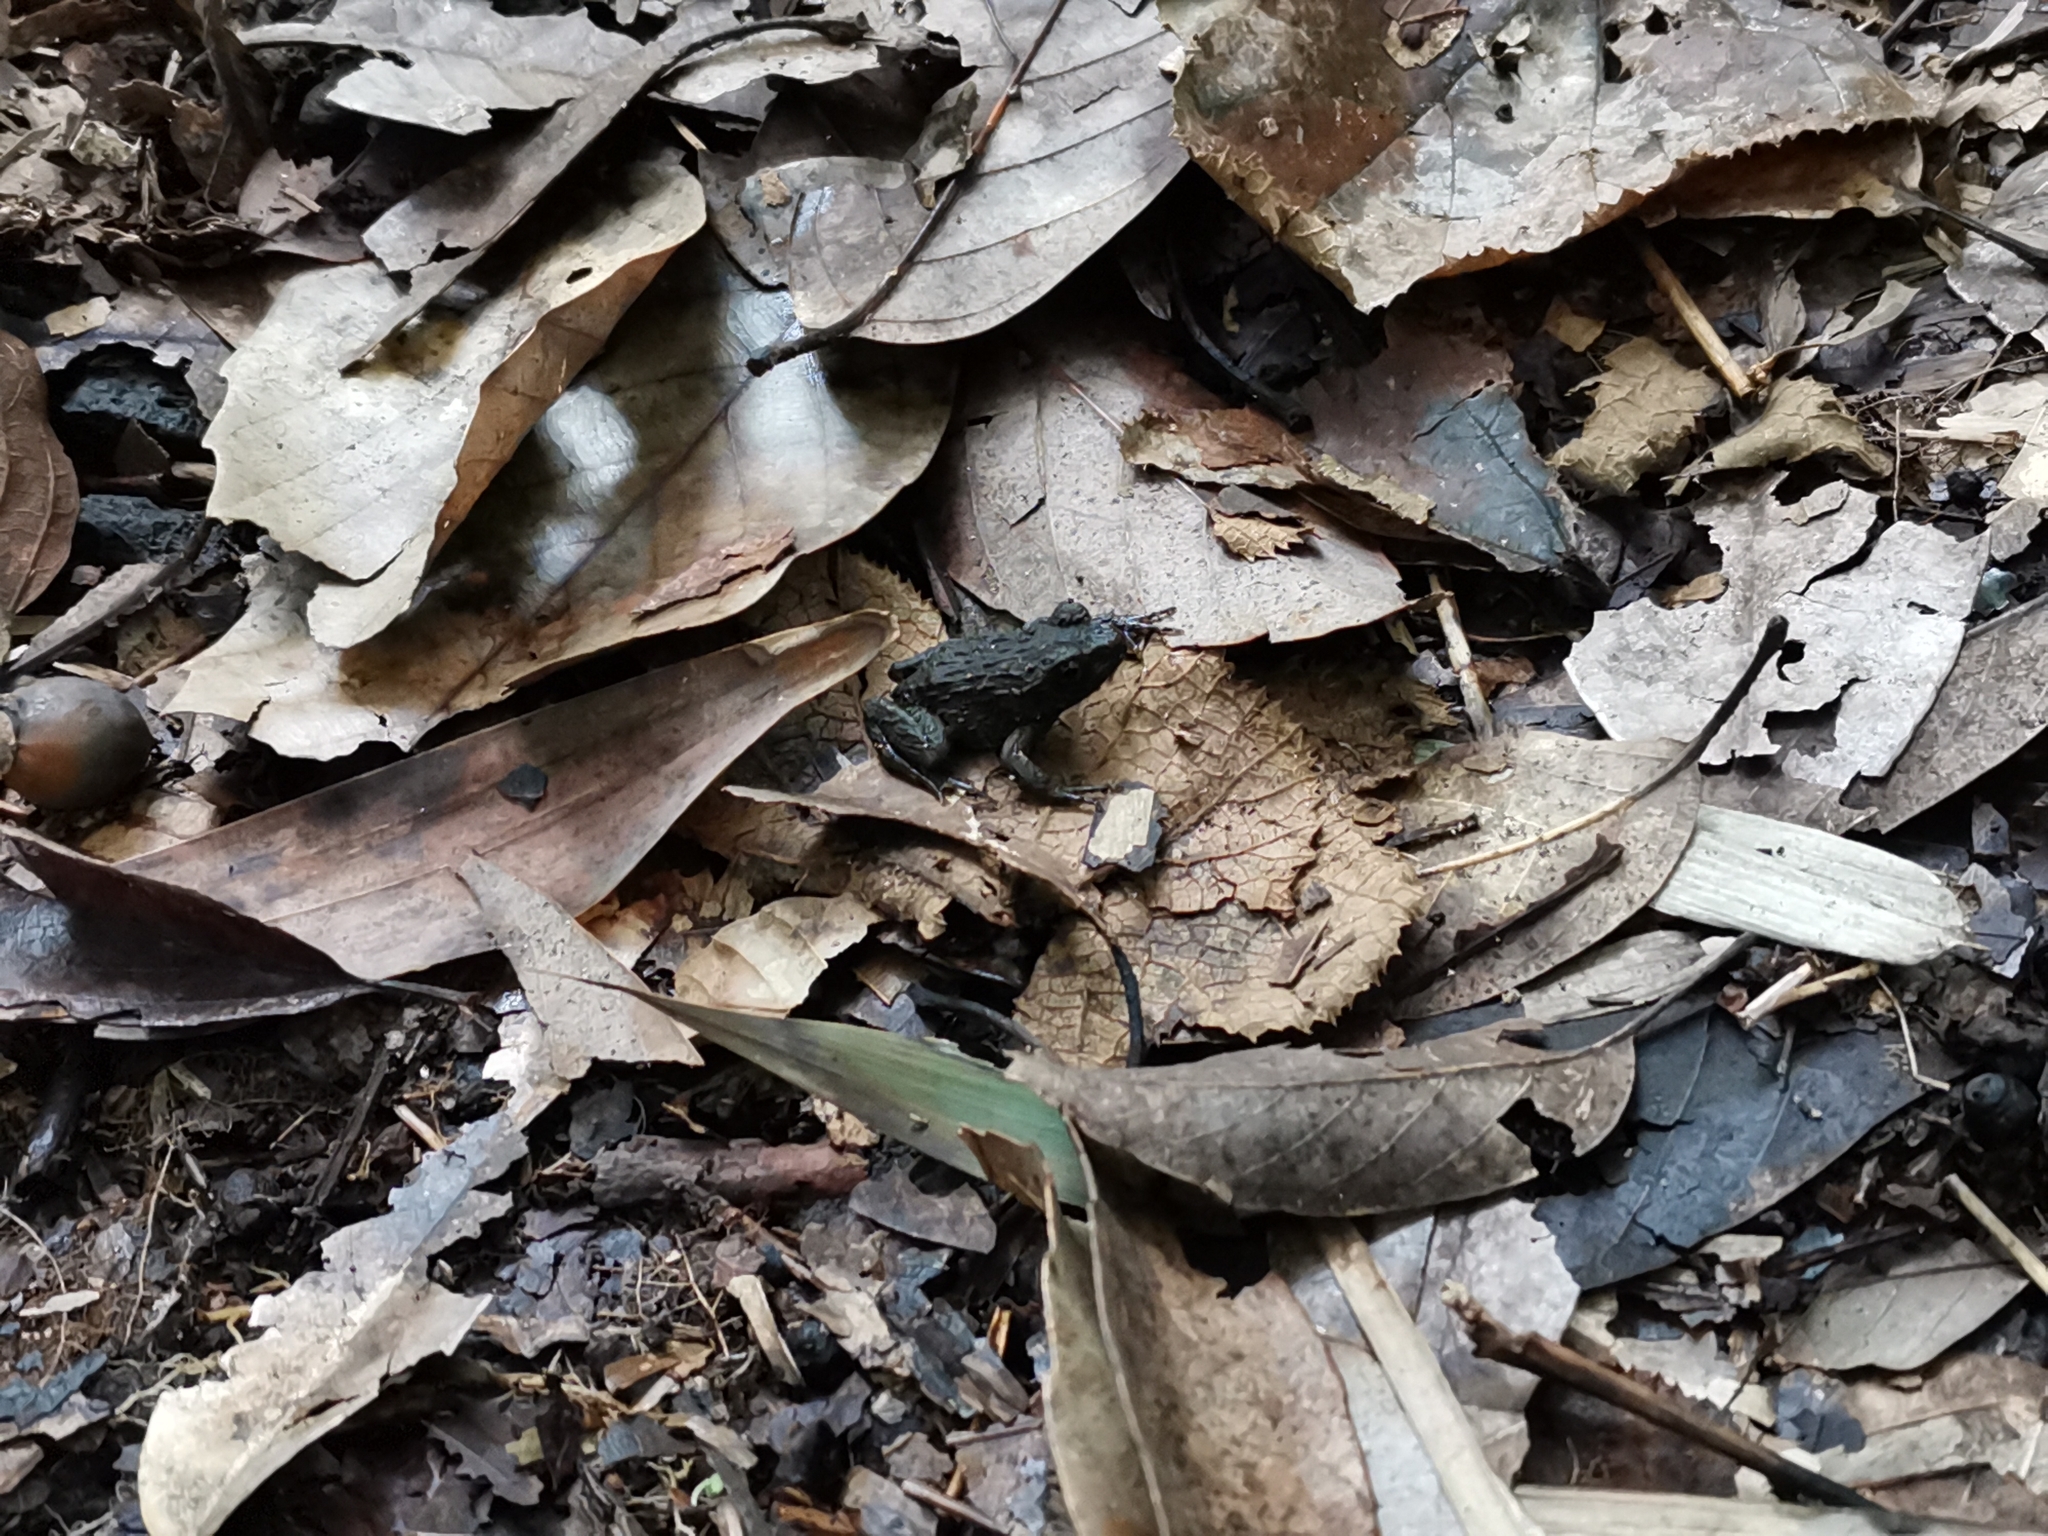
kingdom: Animalia
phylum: Chordata
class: Amphibia
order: Anura
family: Ranidae
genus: Glandirana
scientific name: Glandirana rugosa
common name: Japanese wrinkled frog
